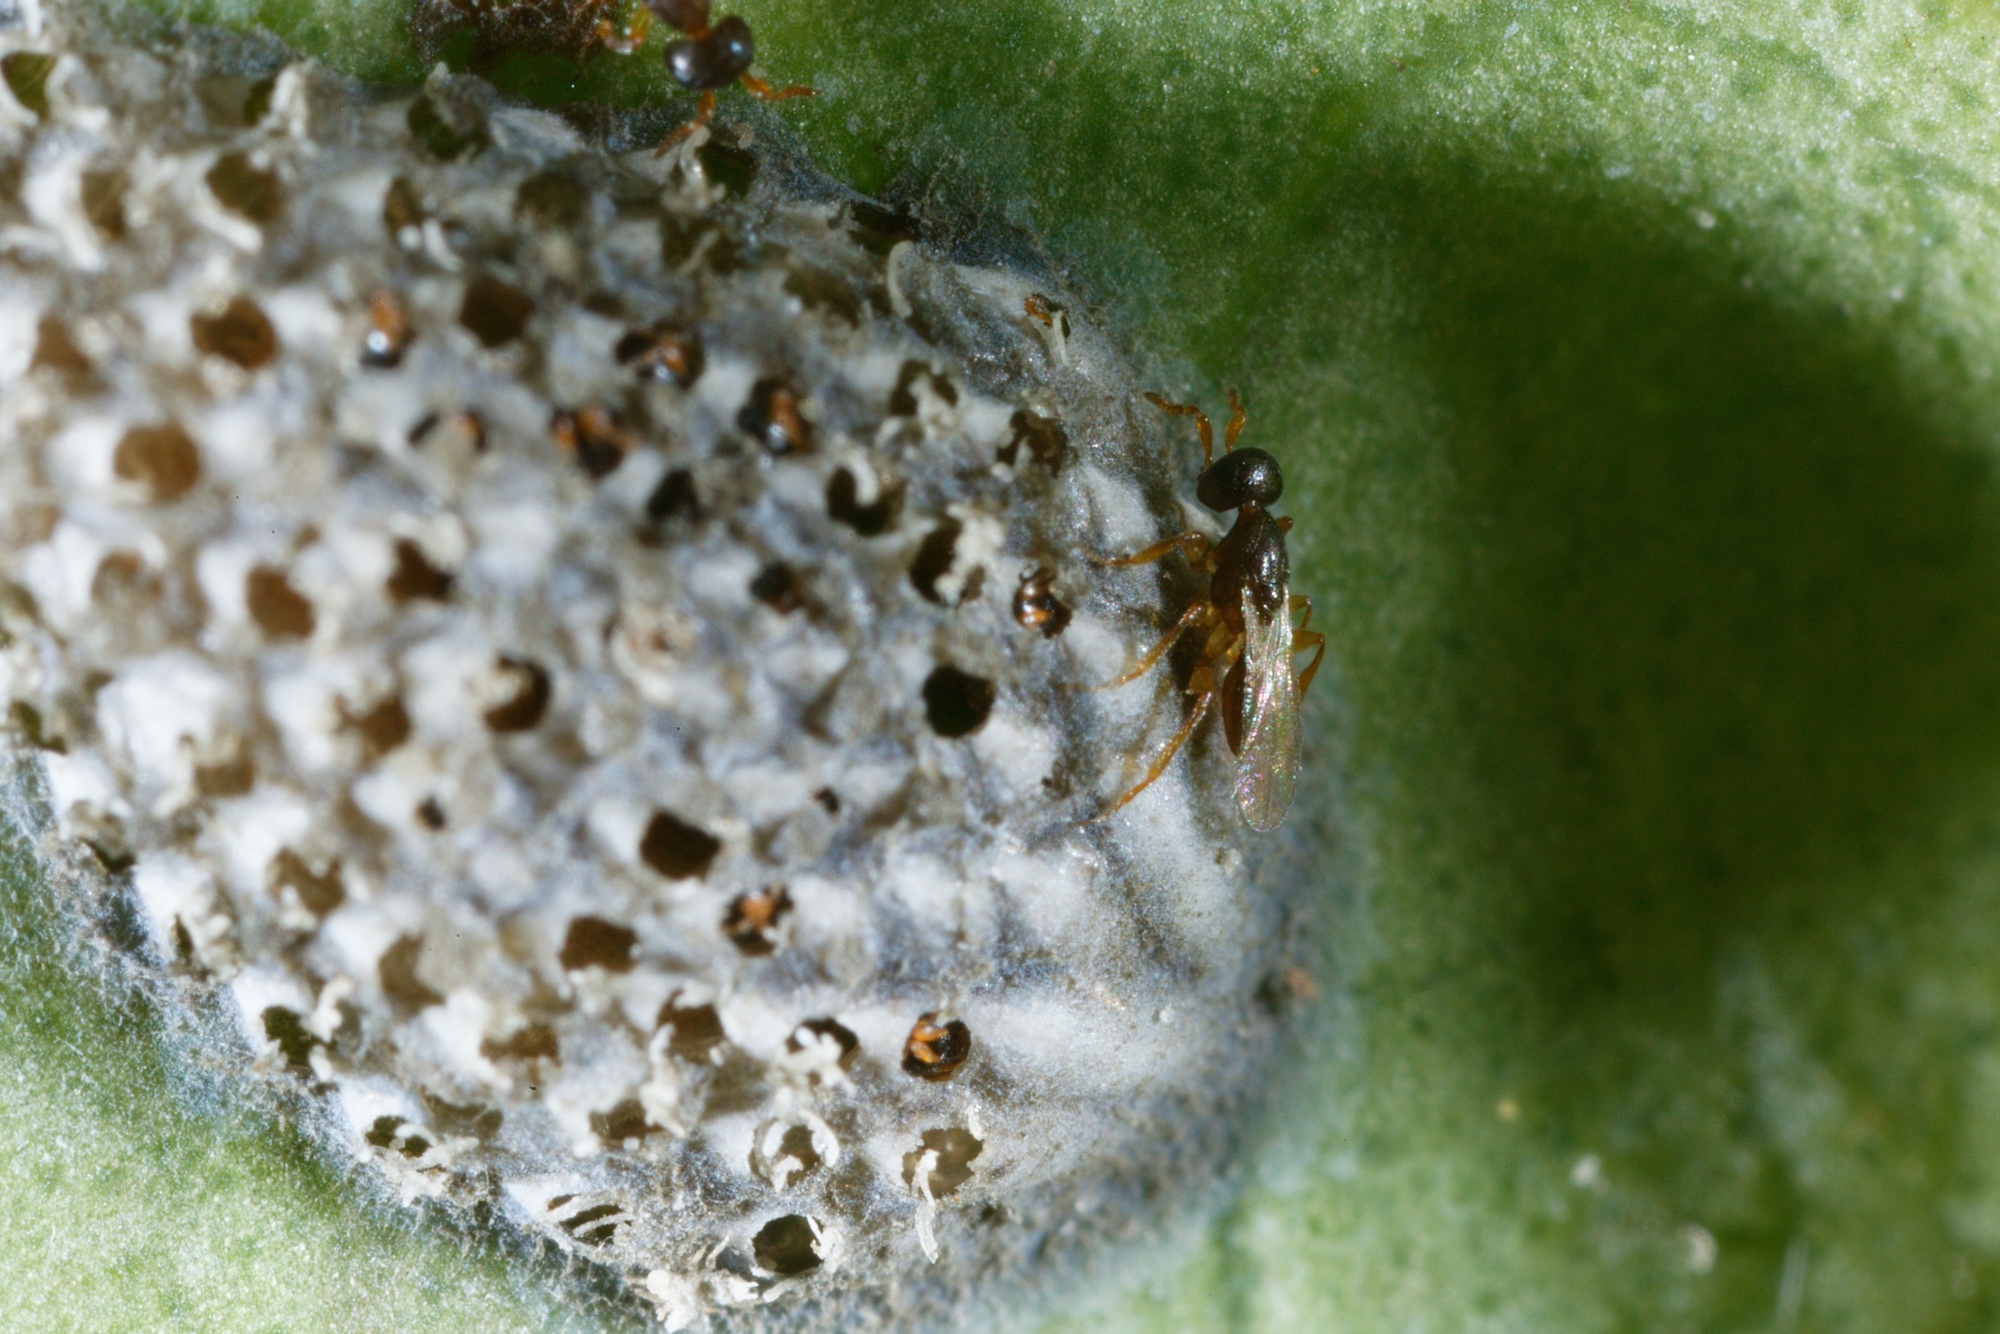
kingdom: Animalia
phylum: Arthropoda
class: Insecta
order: Hymenoptera
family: Platygastridae
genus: Aphanomerus
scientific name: Aphanomerus pusillus
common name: Parasitoid wasp
